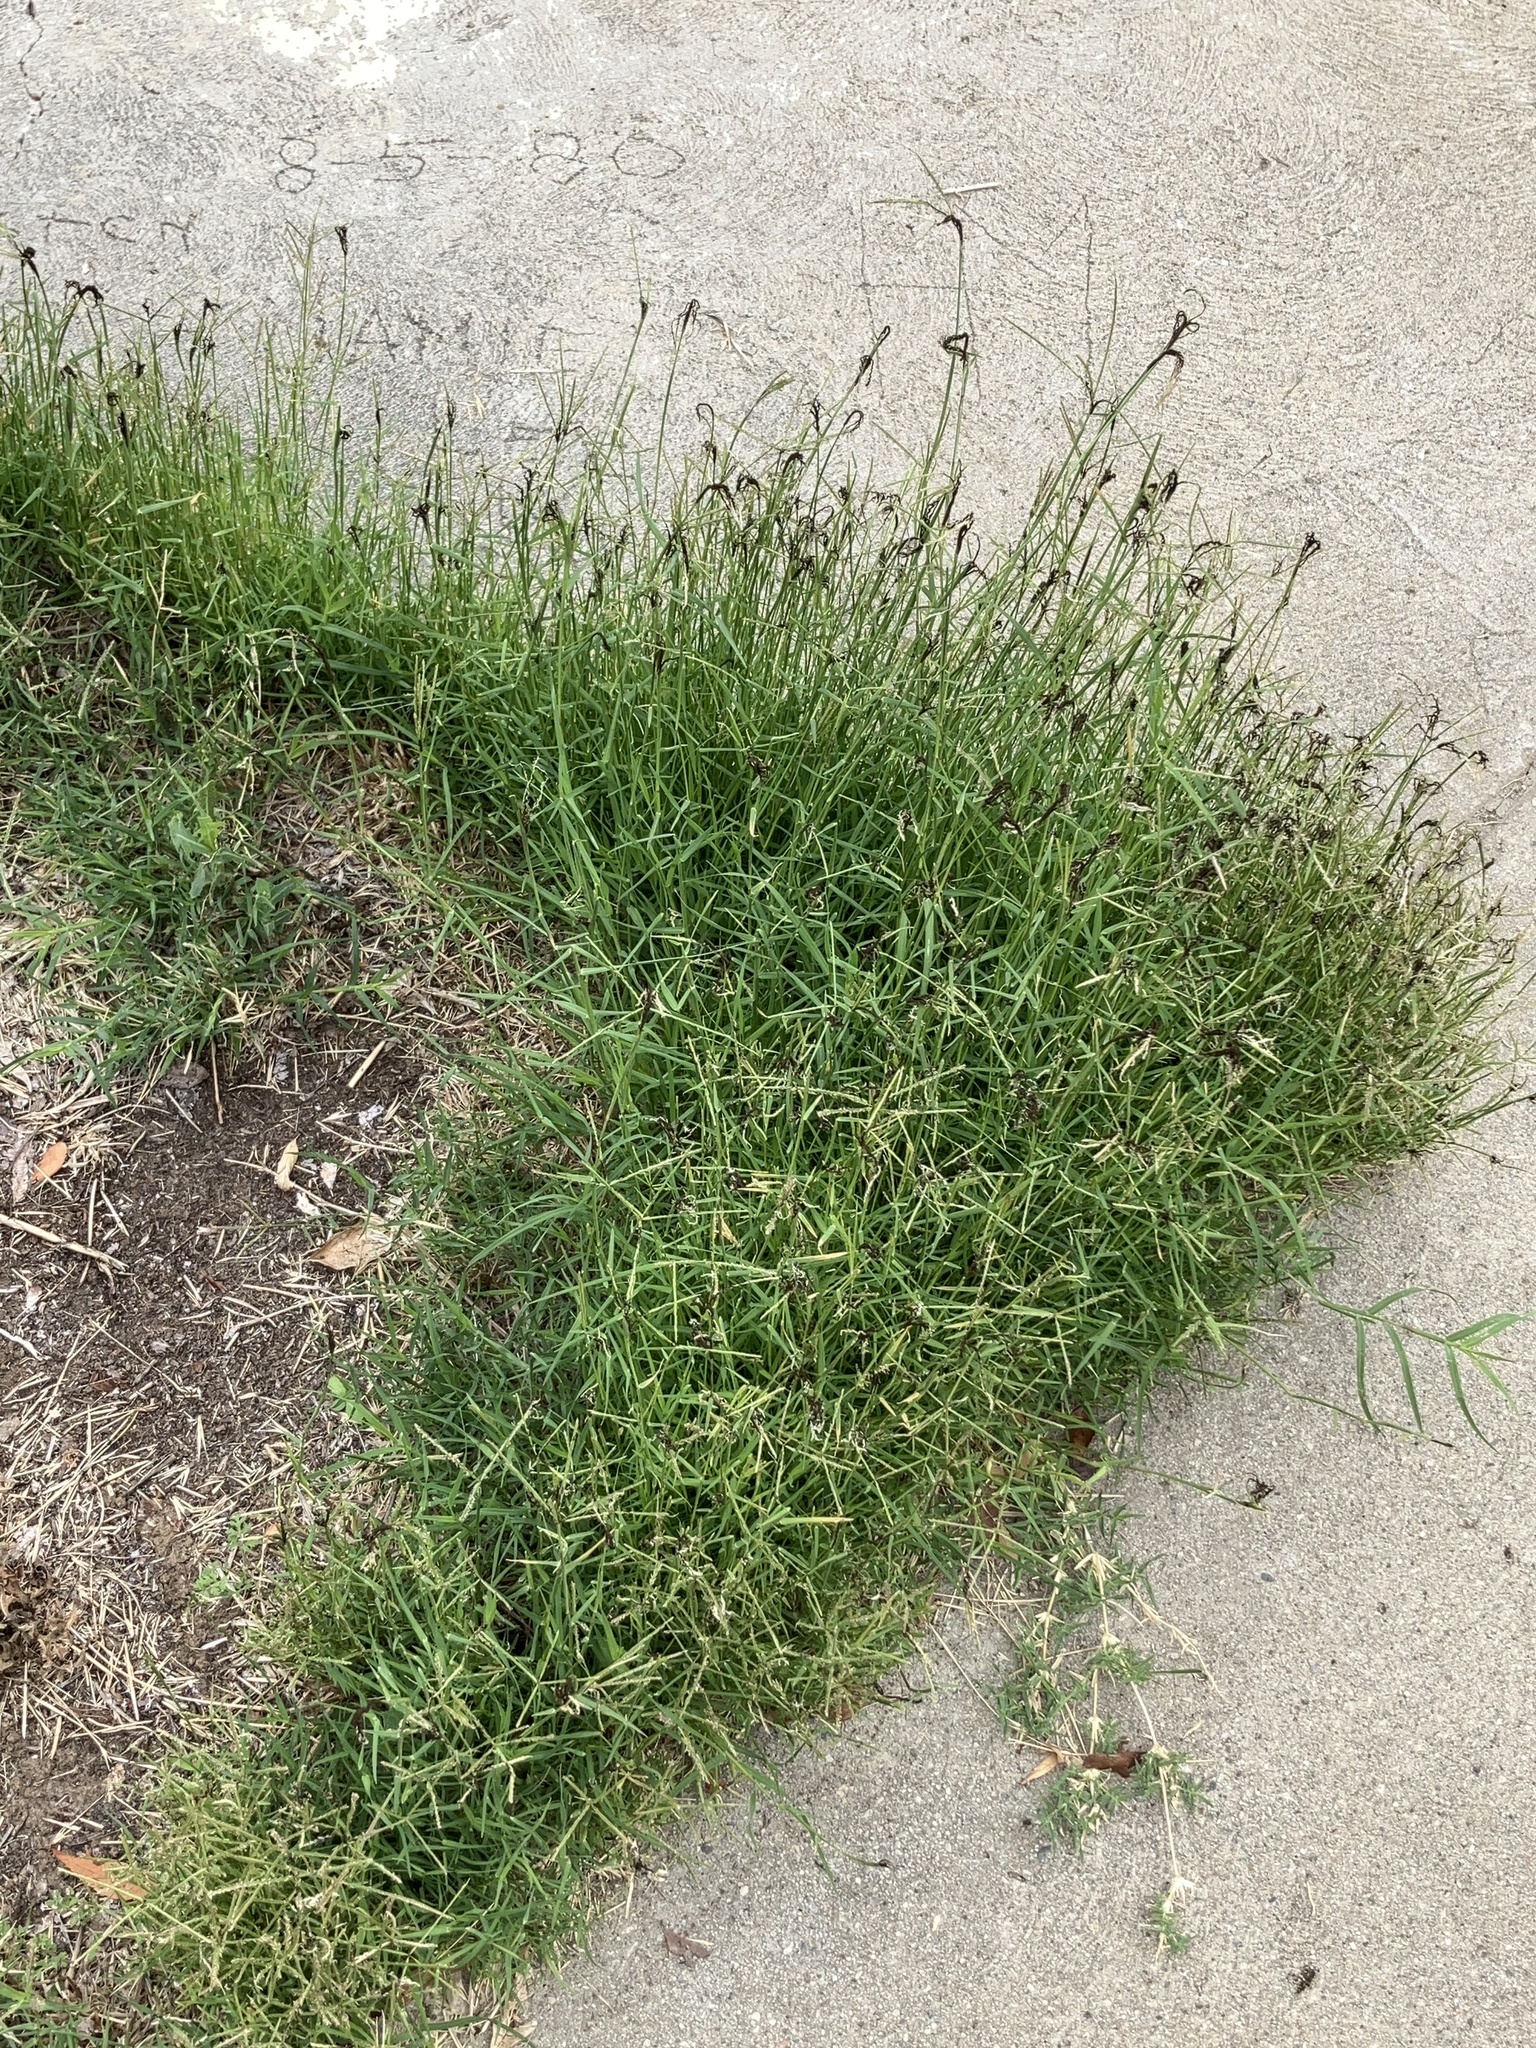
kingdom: Plantae
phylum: Tracheophyta
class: Liliopsida
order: Poales
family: Poaceae
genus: Cynodon
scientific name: Cynodon dactylon
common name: Bermuda grass
